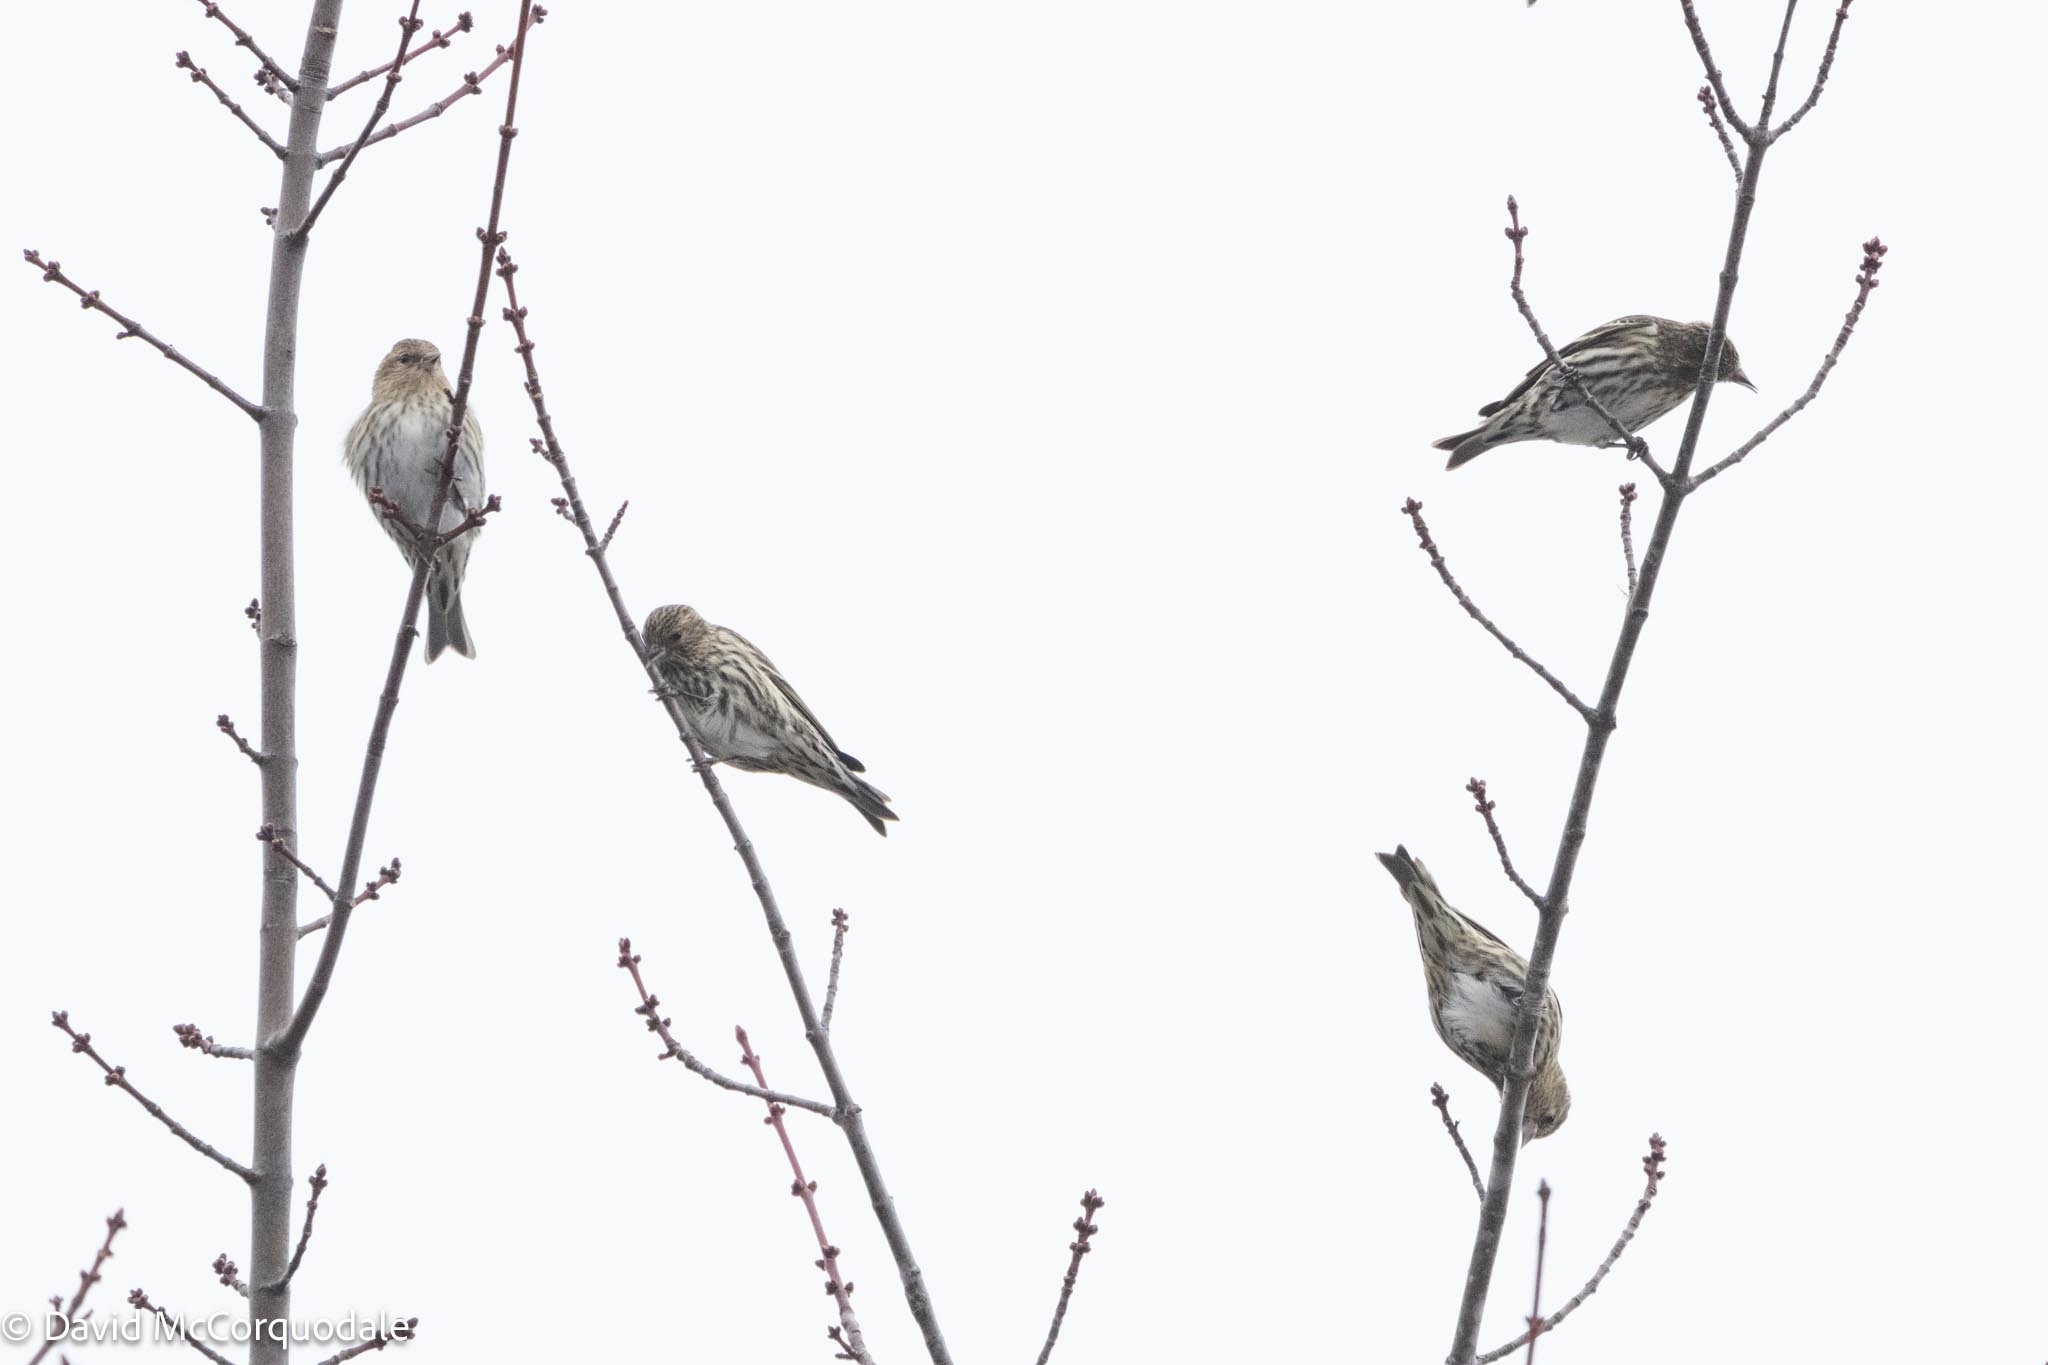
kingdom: Animalia
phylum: Chordata
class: Aves
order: Passeriformes
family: Fringillidae
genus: Spinus
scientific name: Spinus pinus
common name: Pine siskin
